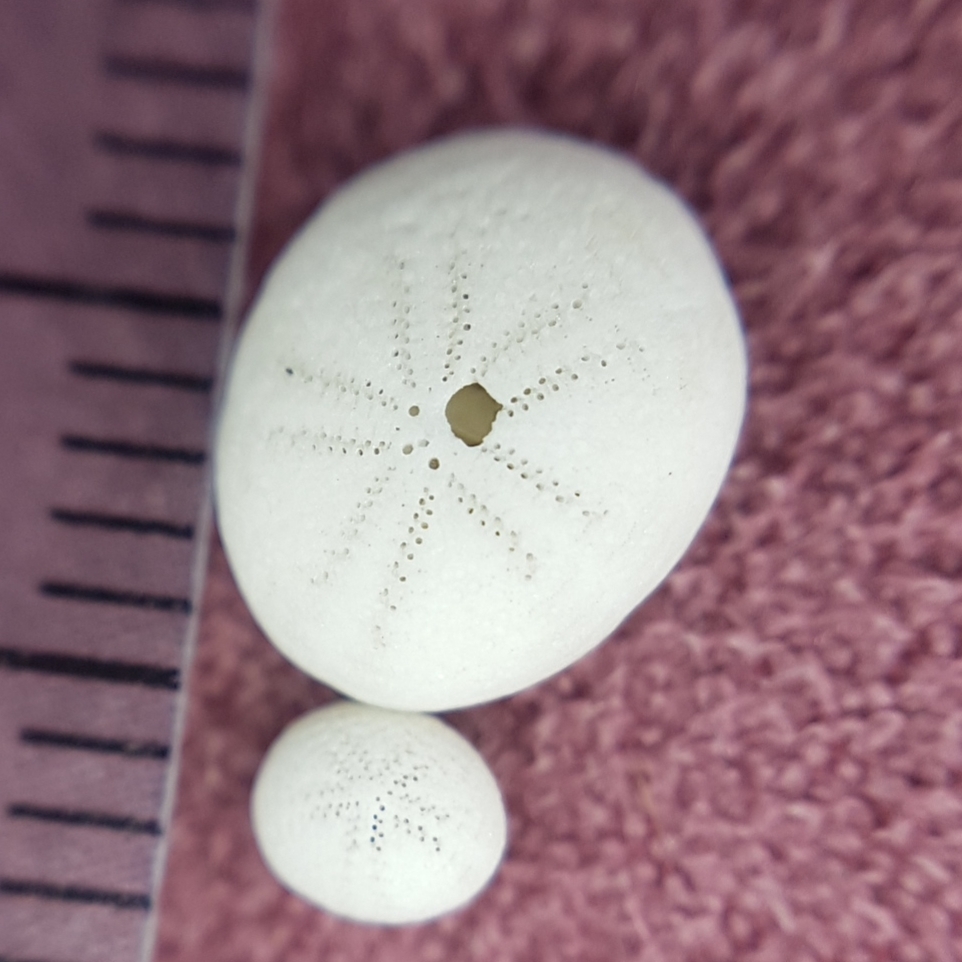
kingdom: Animalia
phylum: Echinodermata
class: Echinoidea
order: Echinolampadacea
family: Fibulariidae
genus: Echinocyamus
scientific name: Echinocyamus pusillus
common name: Broad beau of sea
